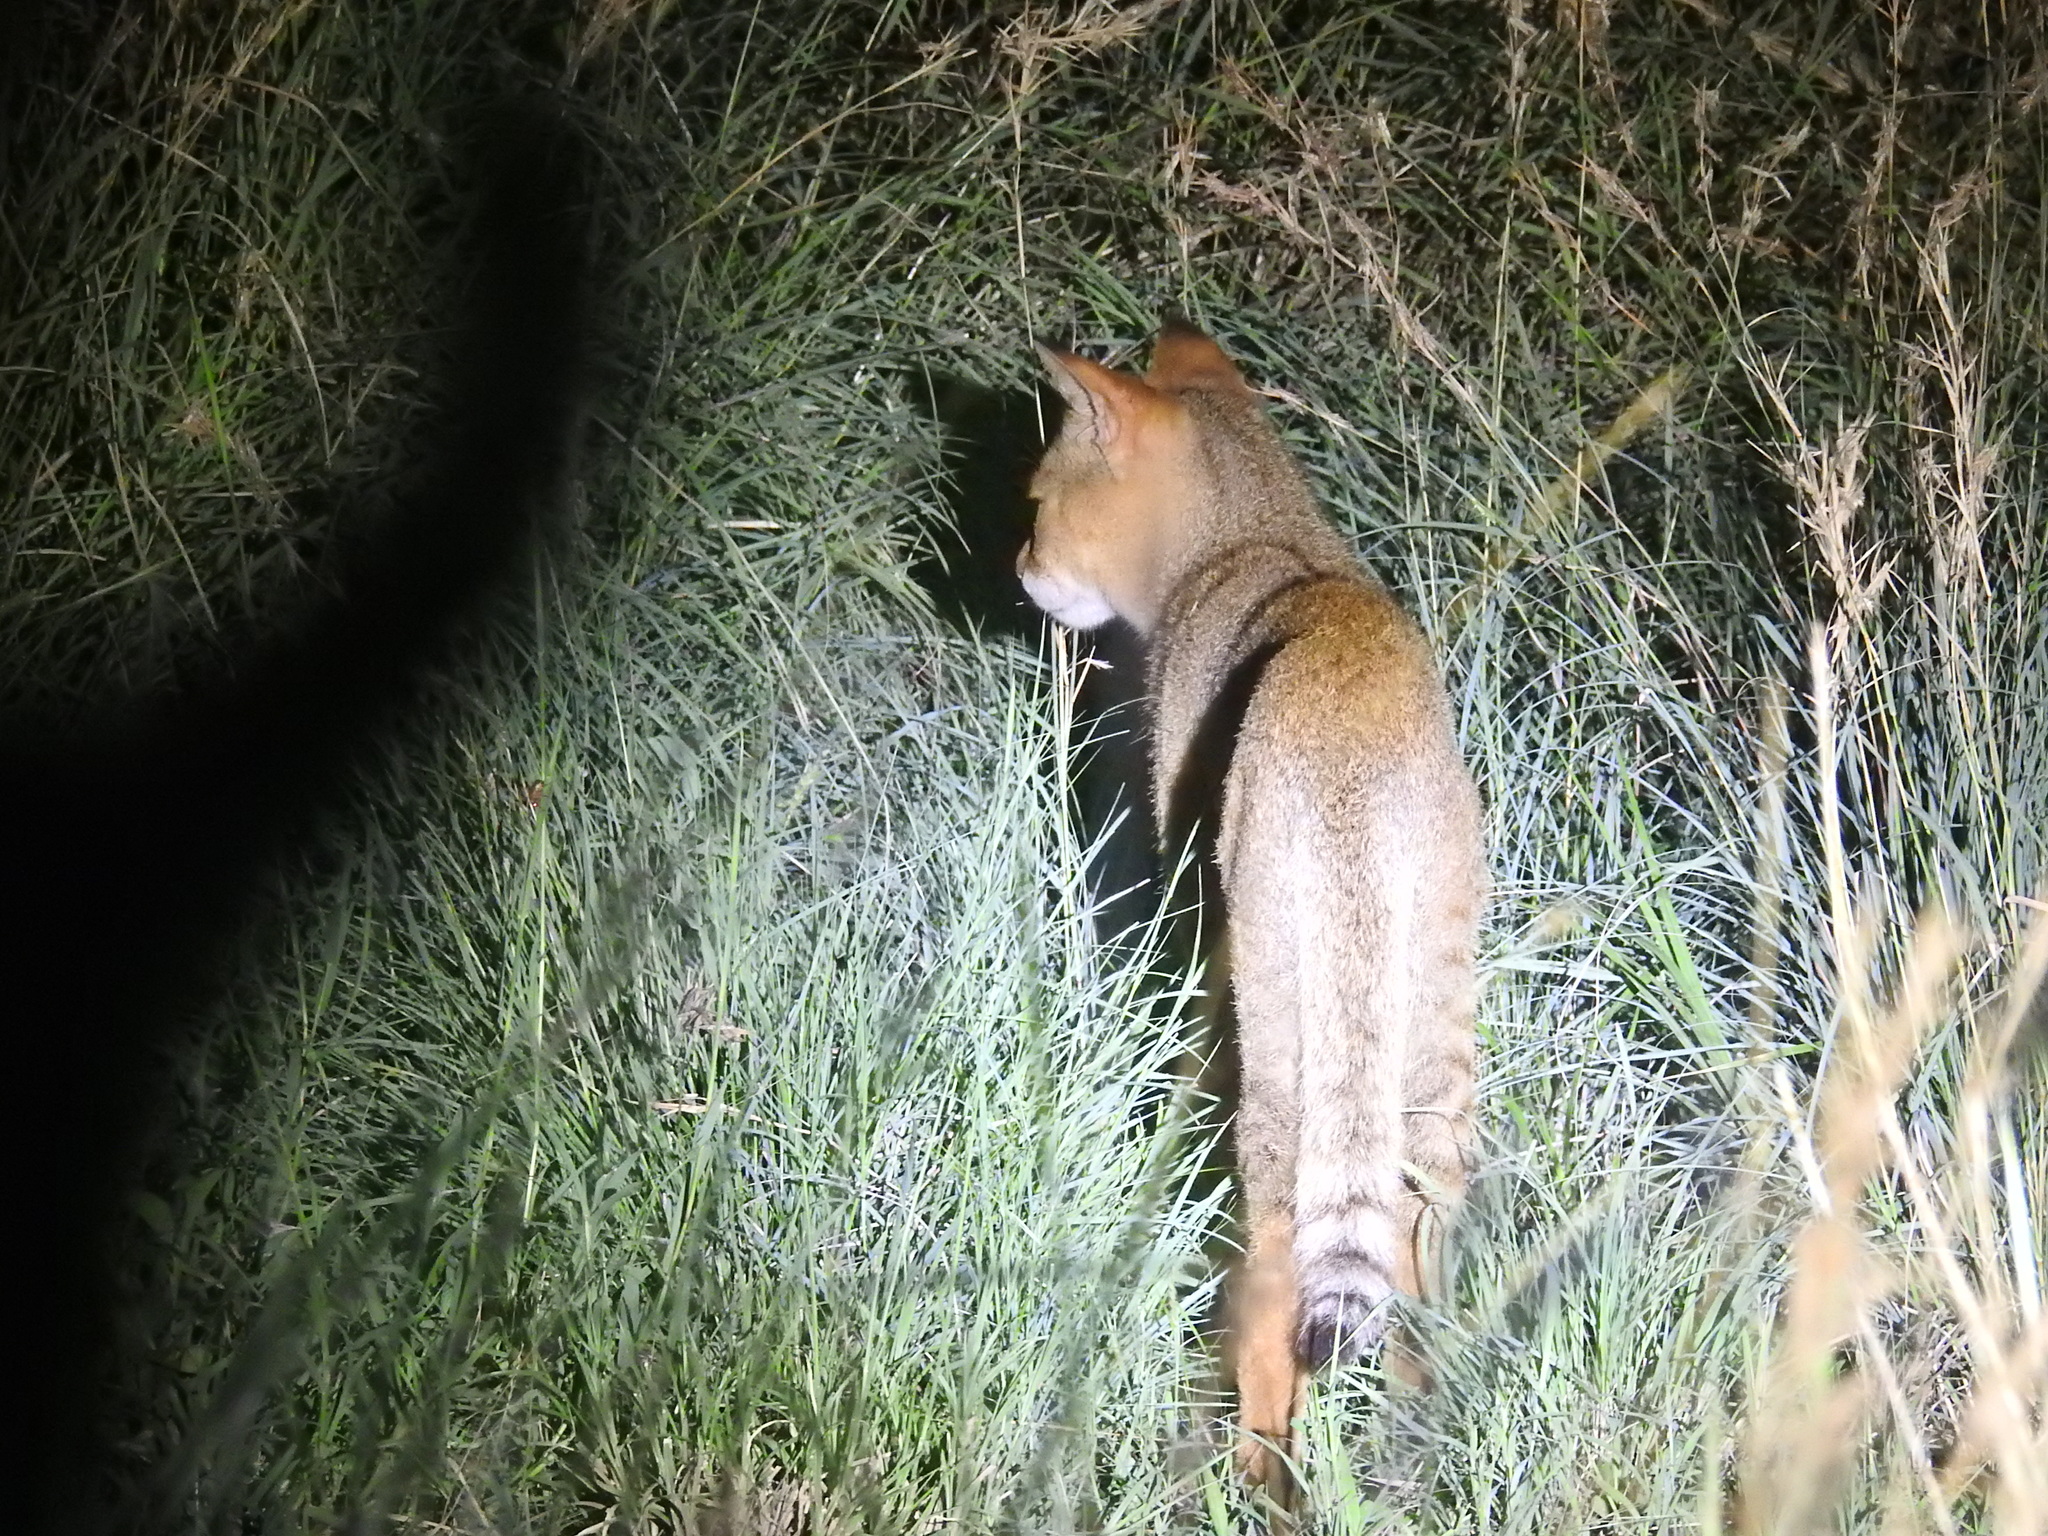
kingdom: Animalia
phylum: Chordata
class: Mammalia
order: Carnivora
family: Felidae
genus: Felis
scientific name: Felis chaus
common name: Jungle cat
